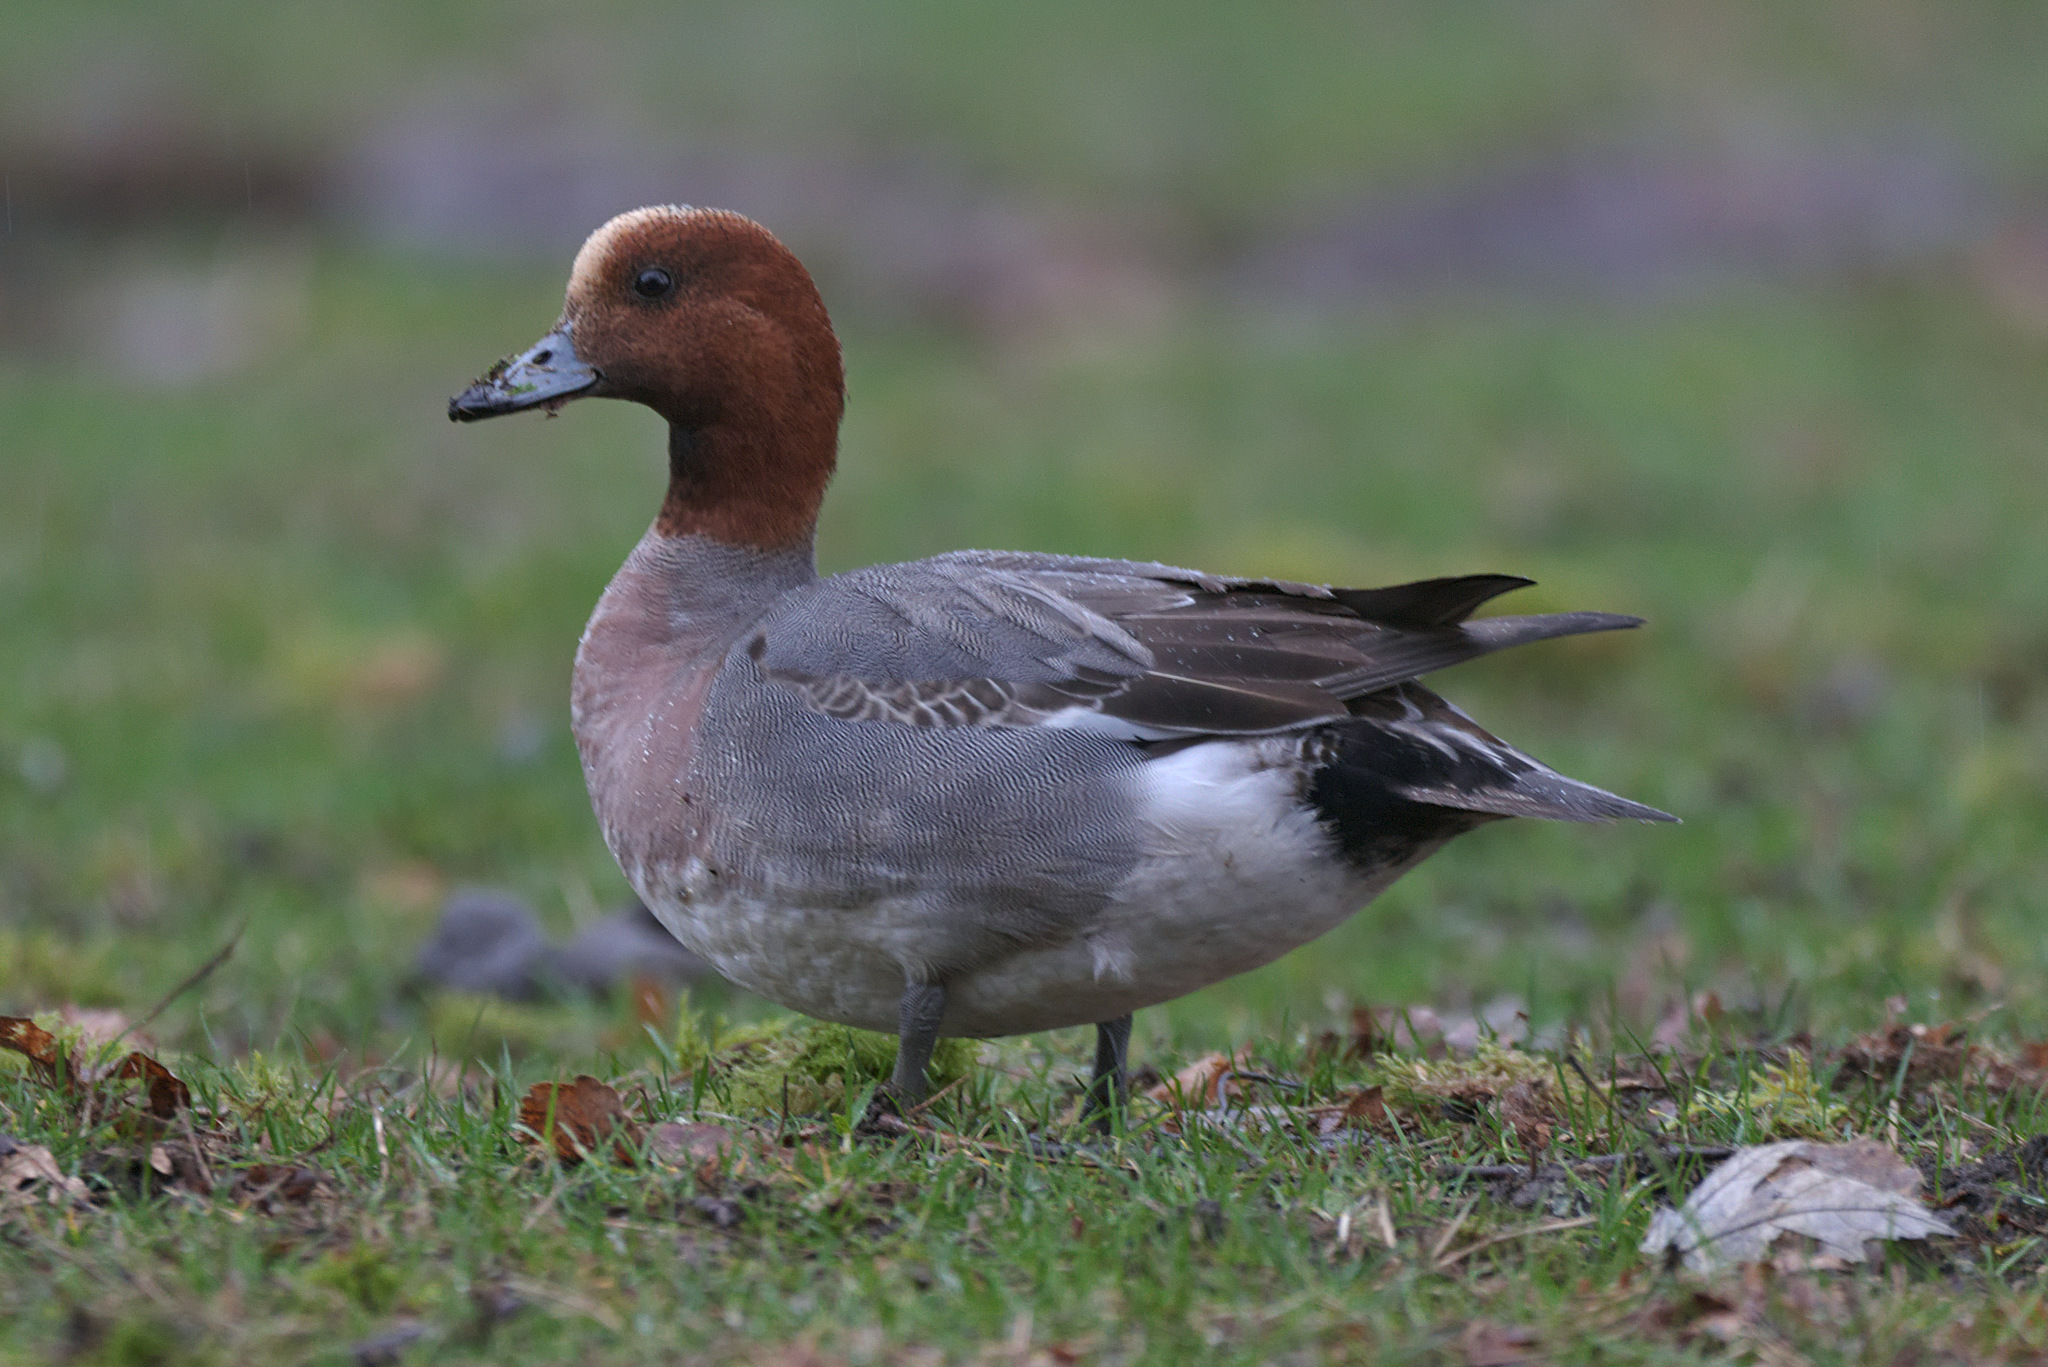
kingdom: Animalia
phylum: Chordata
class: Aves
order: Anseriformes
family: Anatidae
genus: Mareca
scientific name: Mareca penelope
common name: Eurasian wigeon
